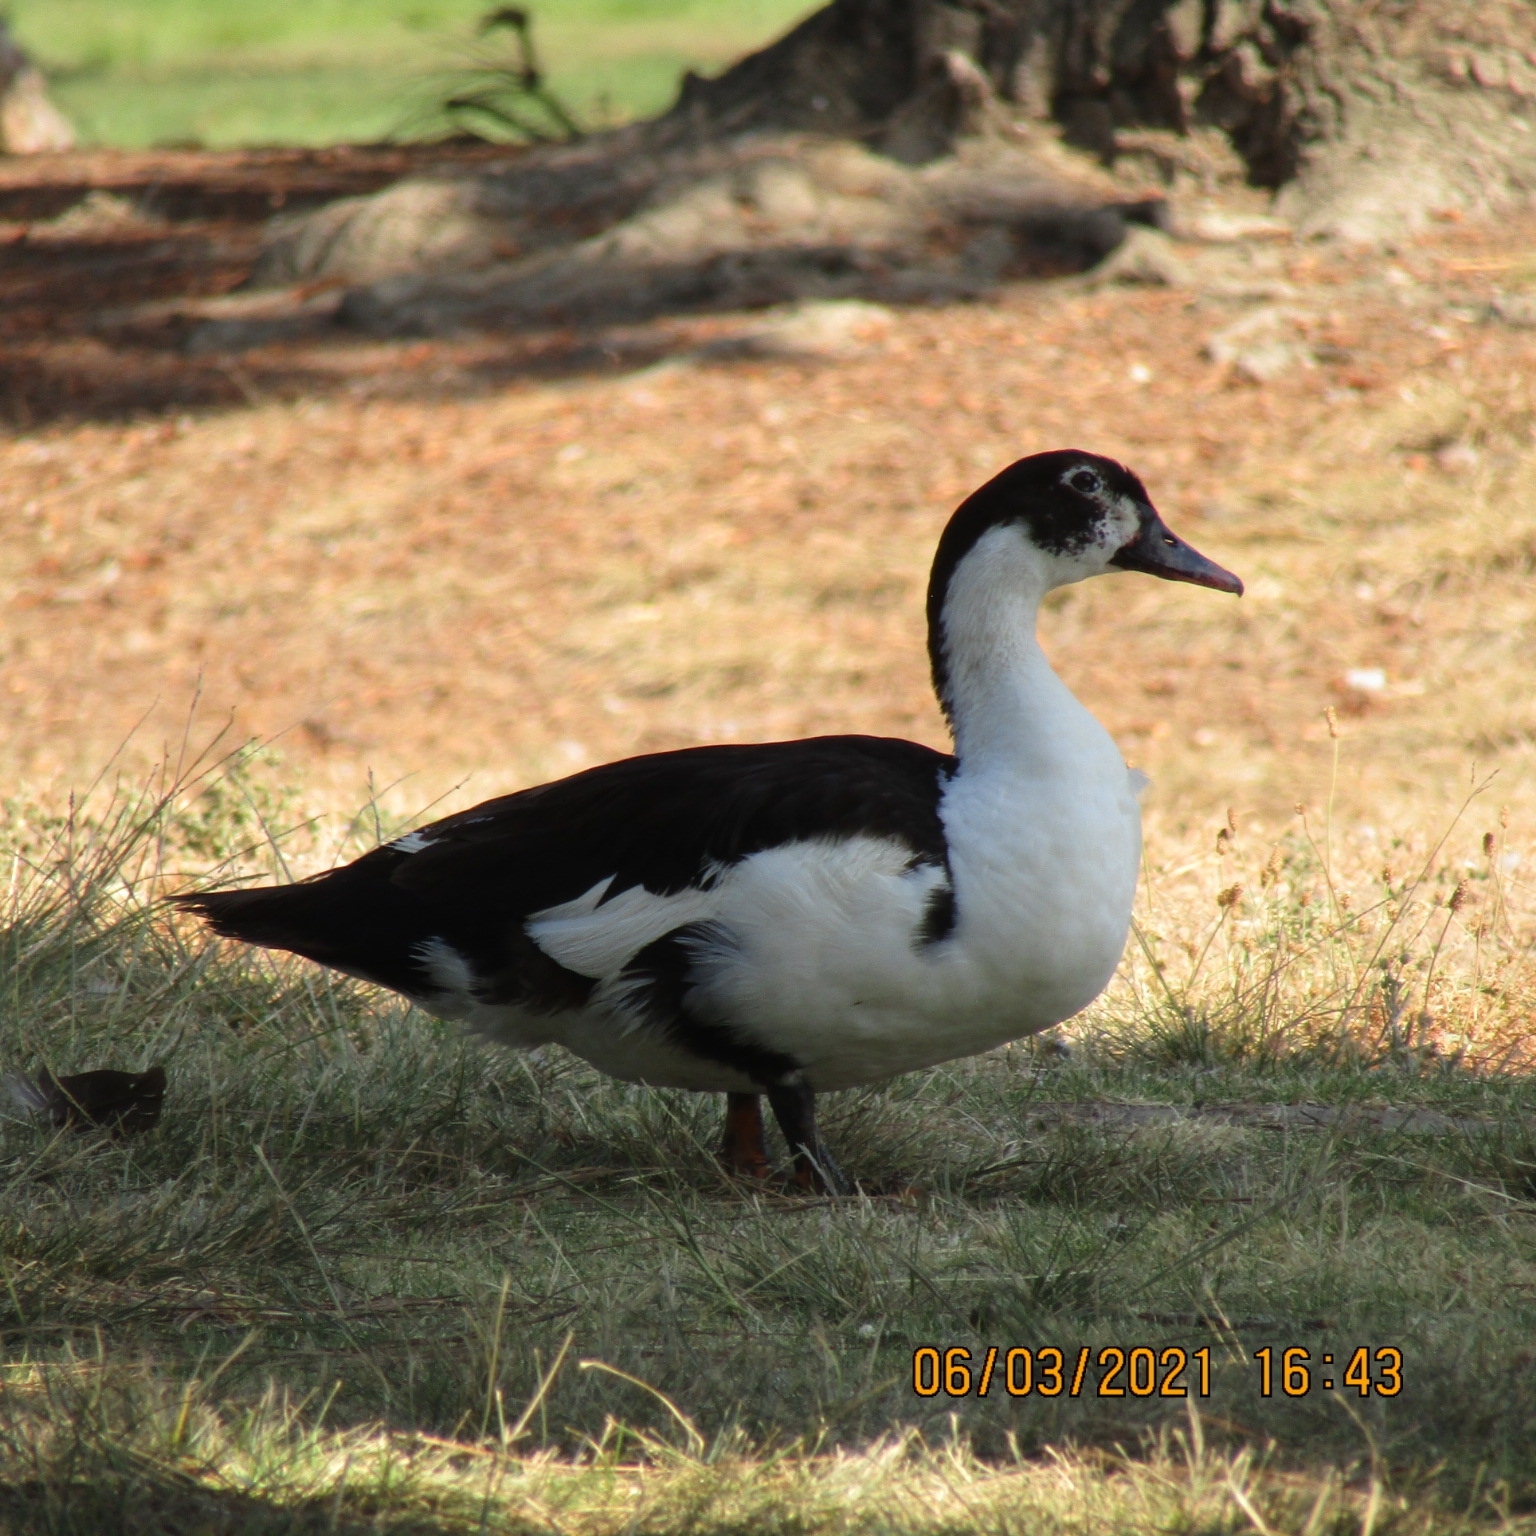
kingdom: Animalia
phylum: Chordata
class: Aves
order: Anseriformes
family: Anatidae
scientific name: Anatidae
